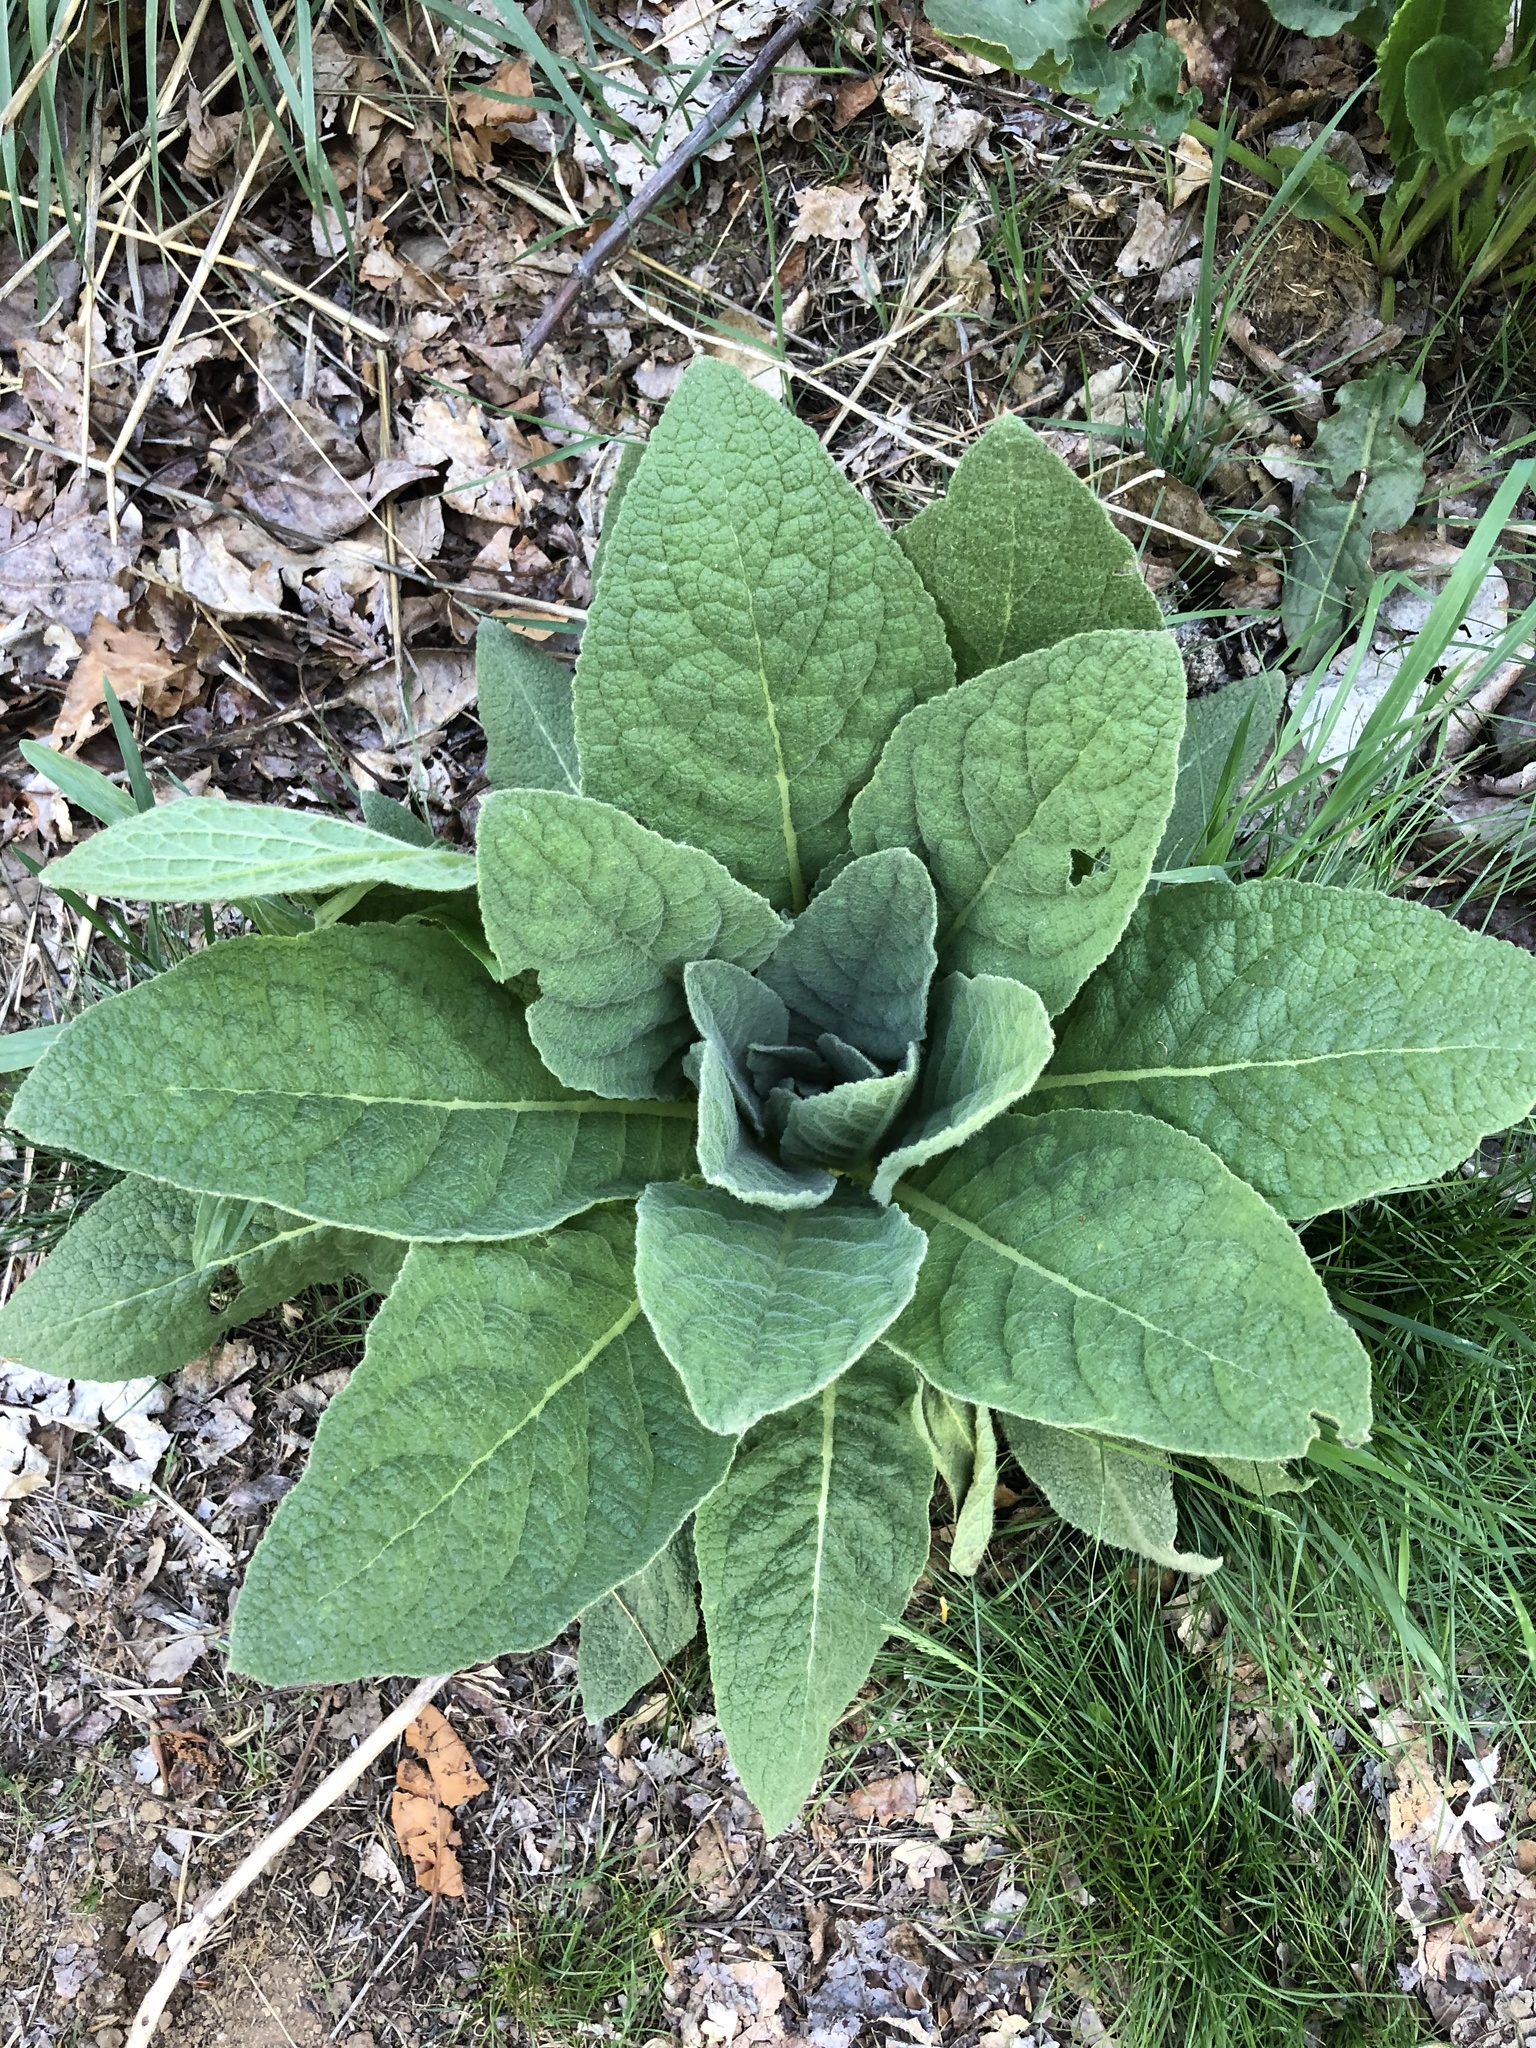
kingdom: Plantae
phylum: Tracheophyta
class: Magnoliopsida
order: Lamiales
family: Scrophulariaceae
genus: Verbascum
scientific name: Verbascum thapsus
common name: Common mullein
